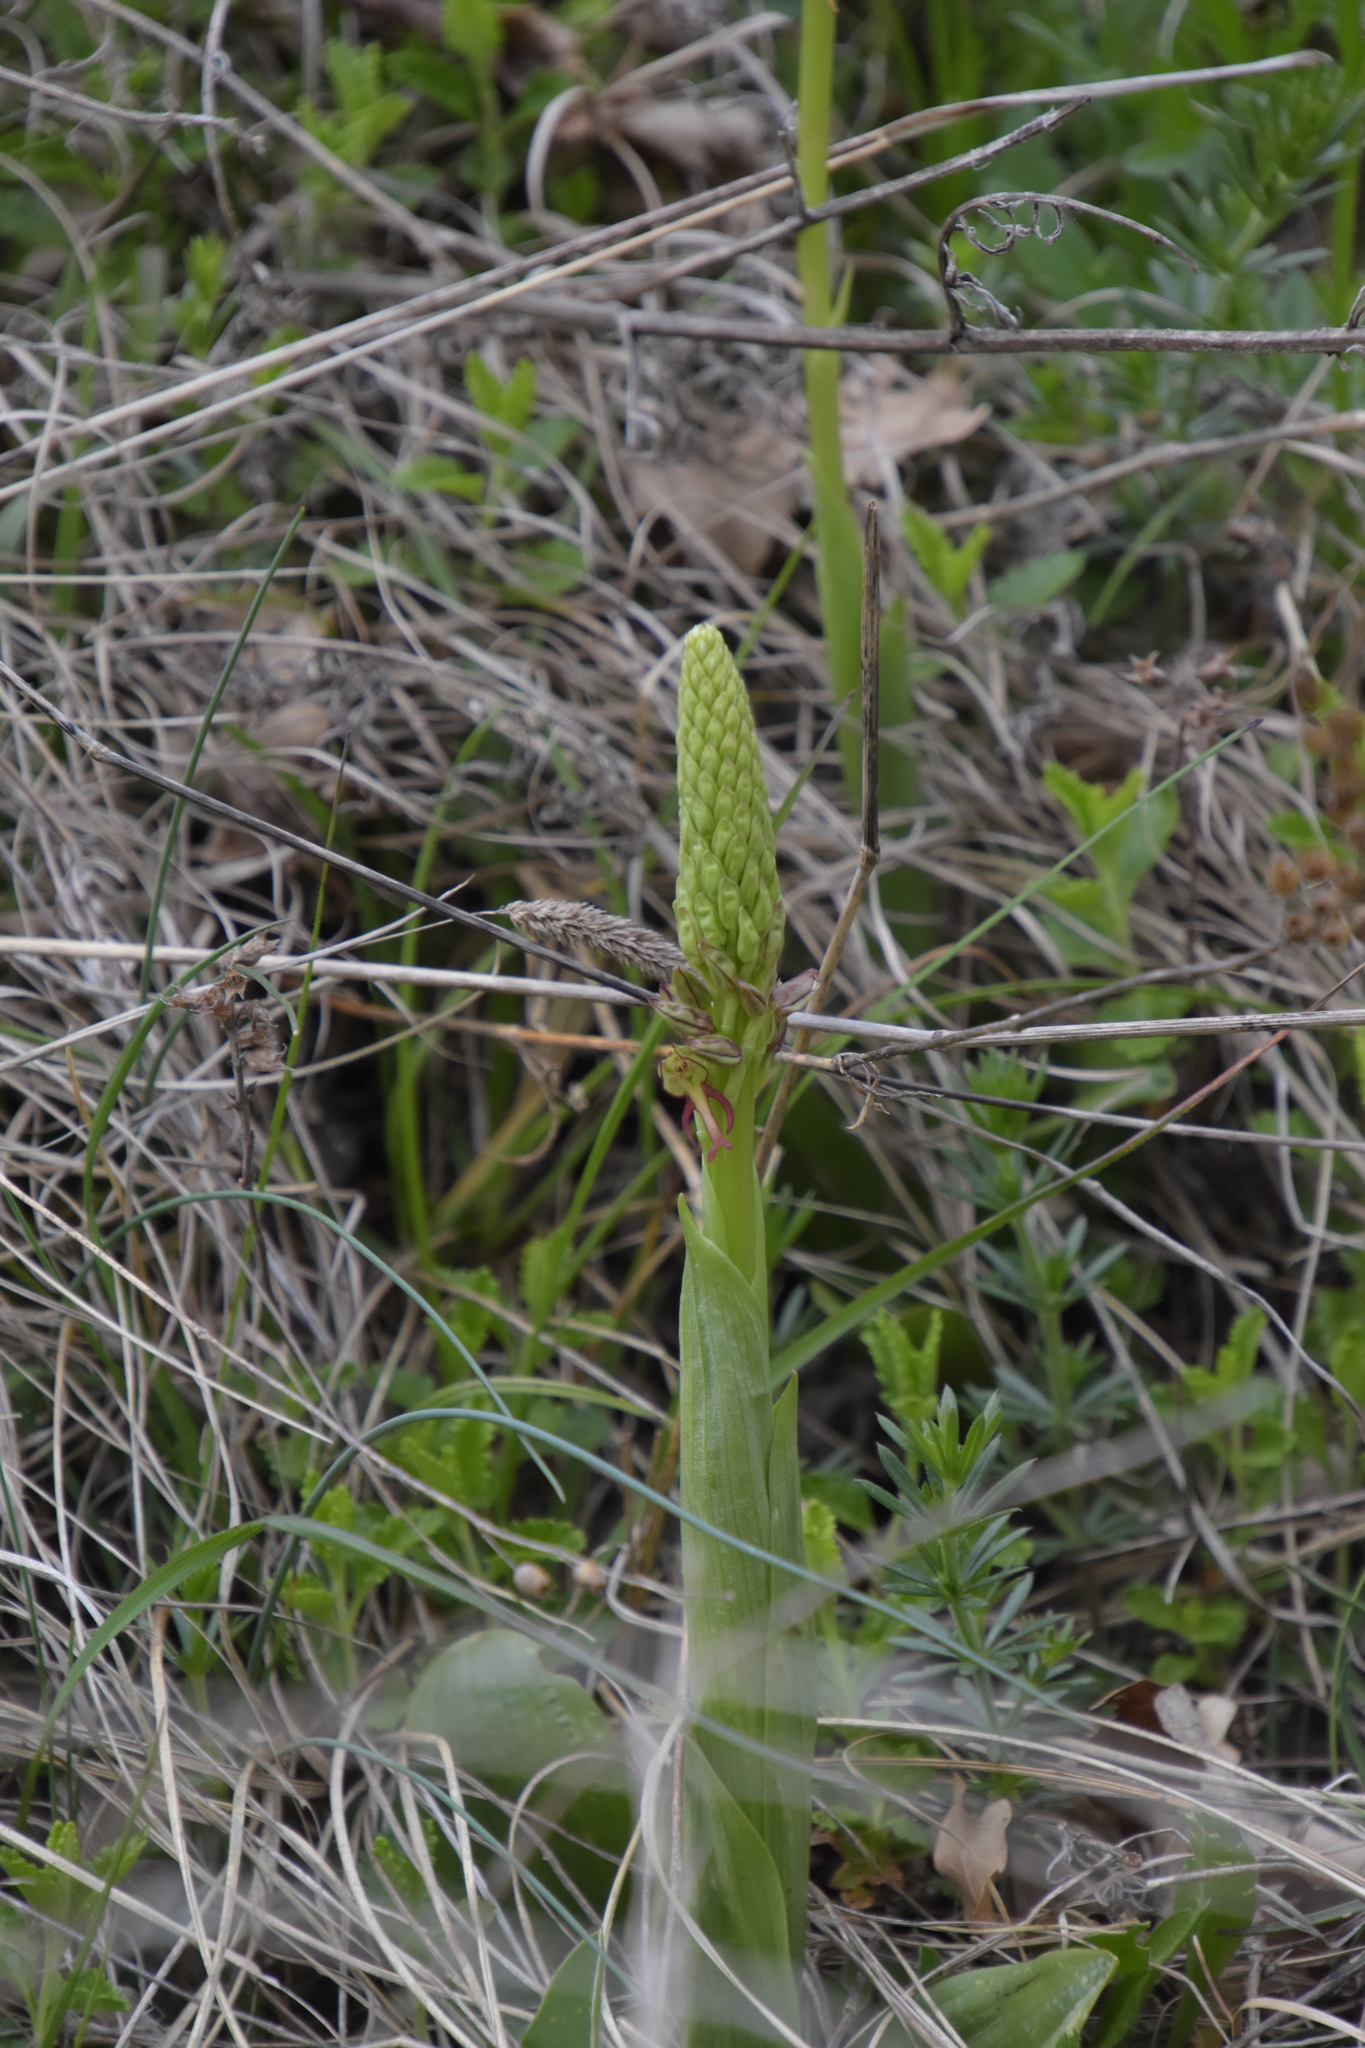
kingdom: Plantae
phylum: Tracheophyta
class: Liliopsida
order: Asparagales
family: Orchidaceae
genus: Orchis
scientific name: Orchis anthropophora
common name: Man orchid
